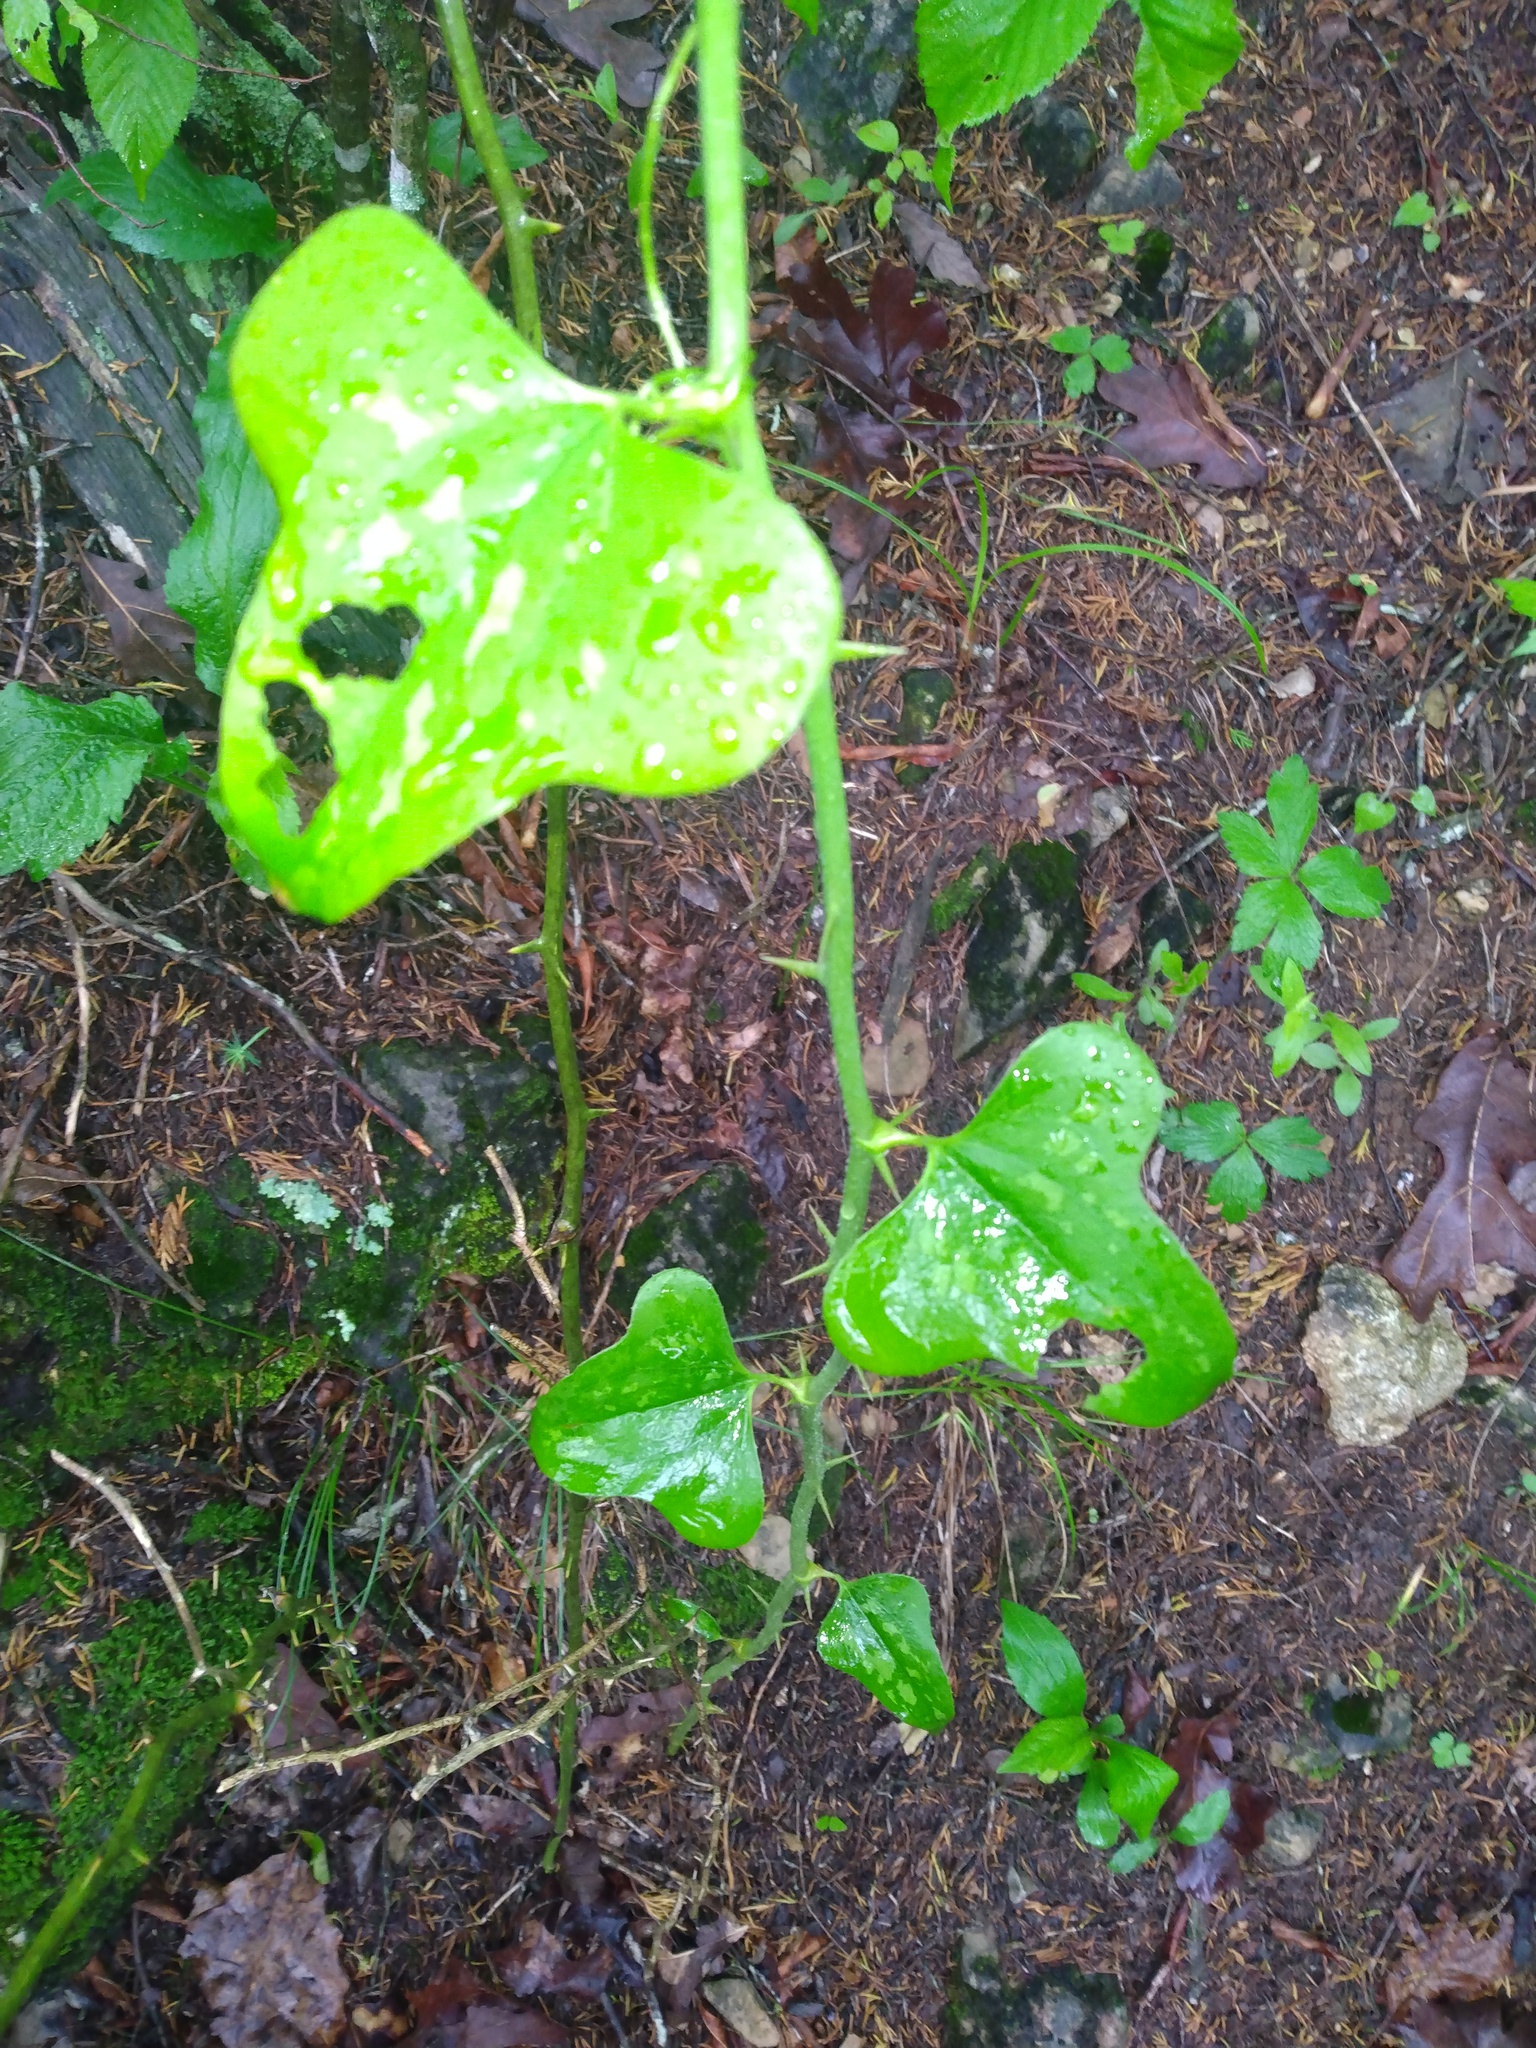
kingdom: Plantae
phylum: Tracheophyta
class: Liliopsida
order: Liliales
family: Smilacaceae
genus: Smilax
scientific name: Smilax bona-nox
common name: Catbrier
